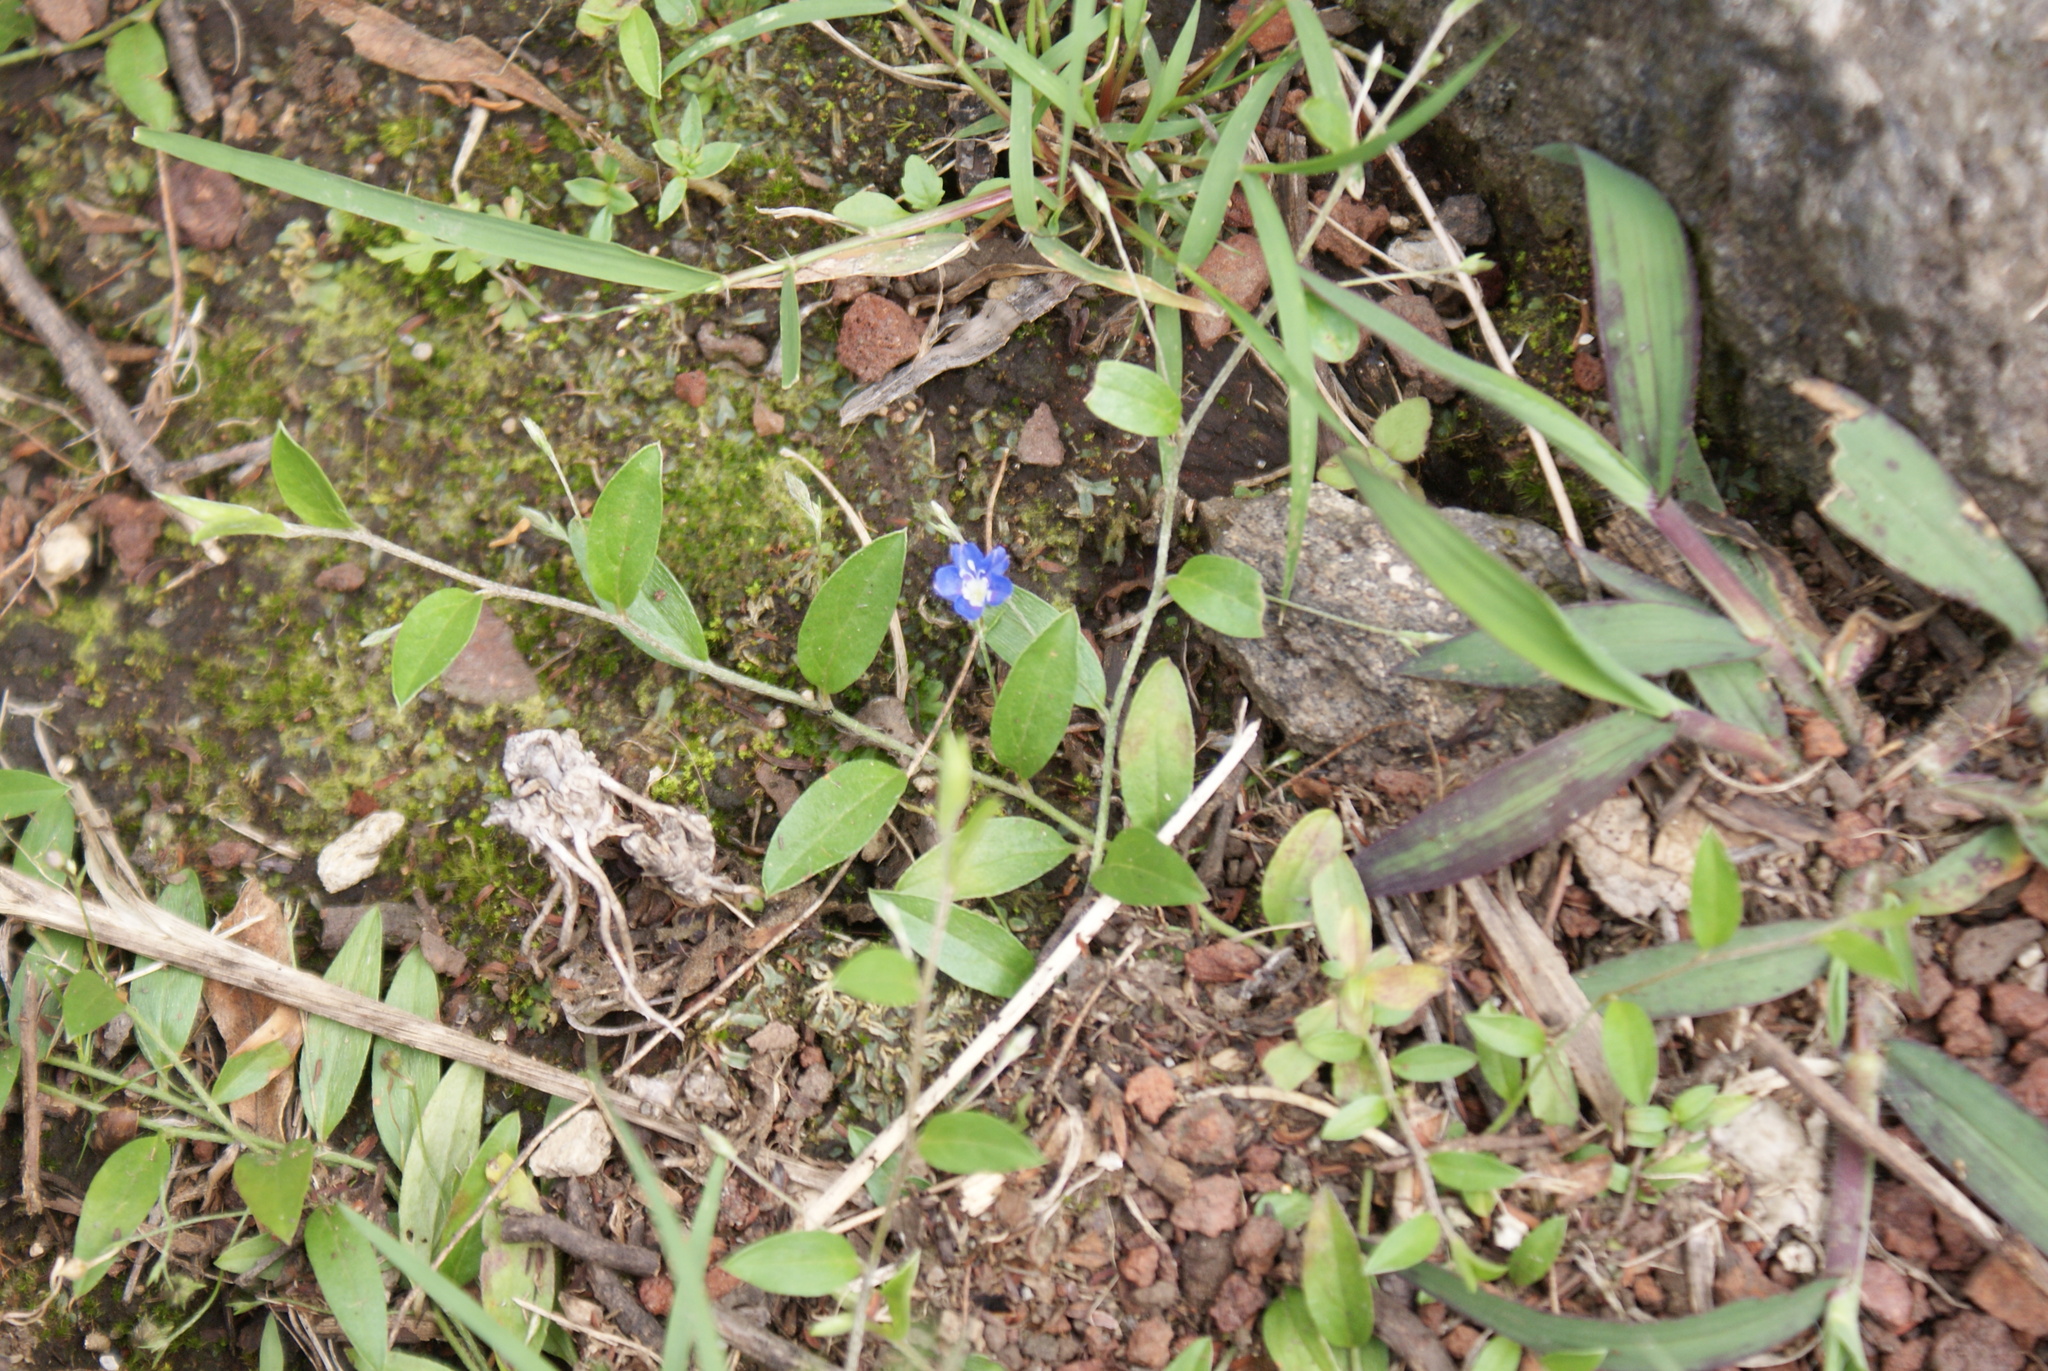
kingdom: Plantae
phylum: Tracheophyta
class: Magnoliopsida
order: Solanales
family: Convolvulaceae
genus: Evolvulus
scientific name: Evolvulus alsinoides
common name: Slender dwarf morning-glory
